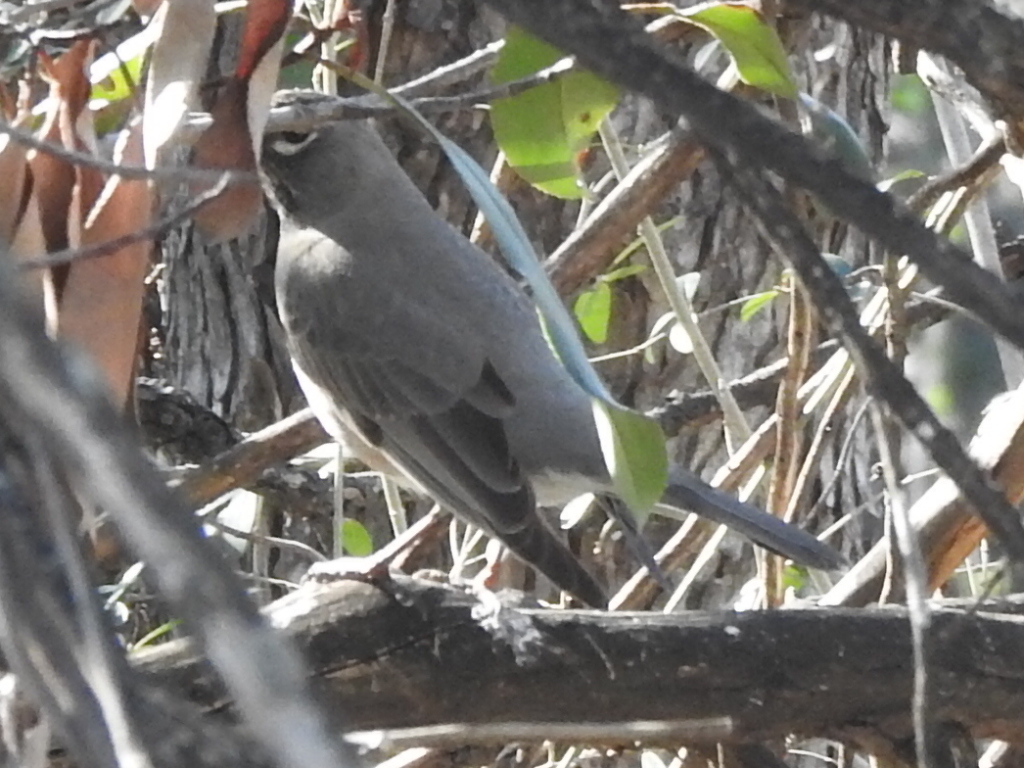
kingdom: Animalia
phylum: Chordata
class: Aves
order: Passeriformes
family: Turdidae
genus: Turdus
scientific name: Turdus migratorius
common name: American robin
